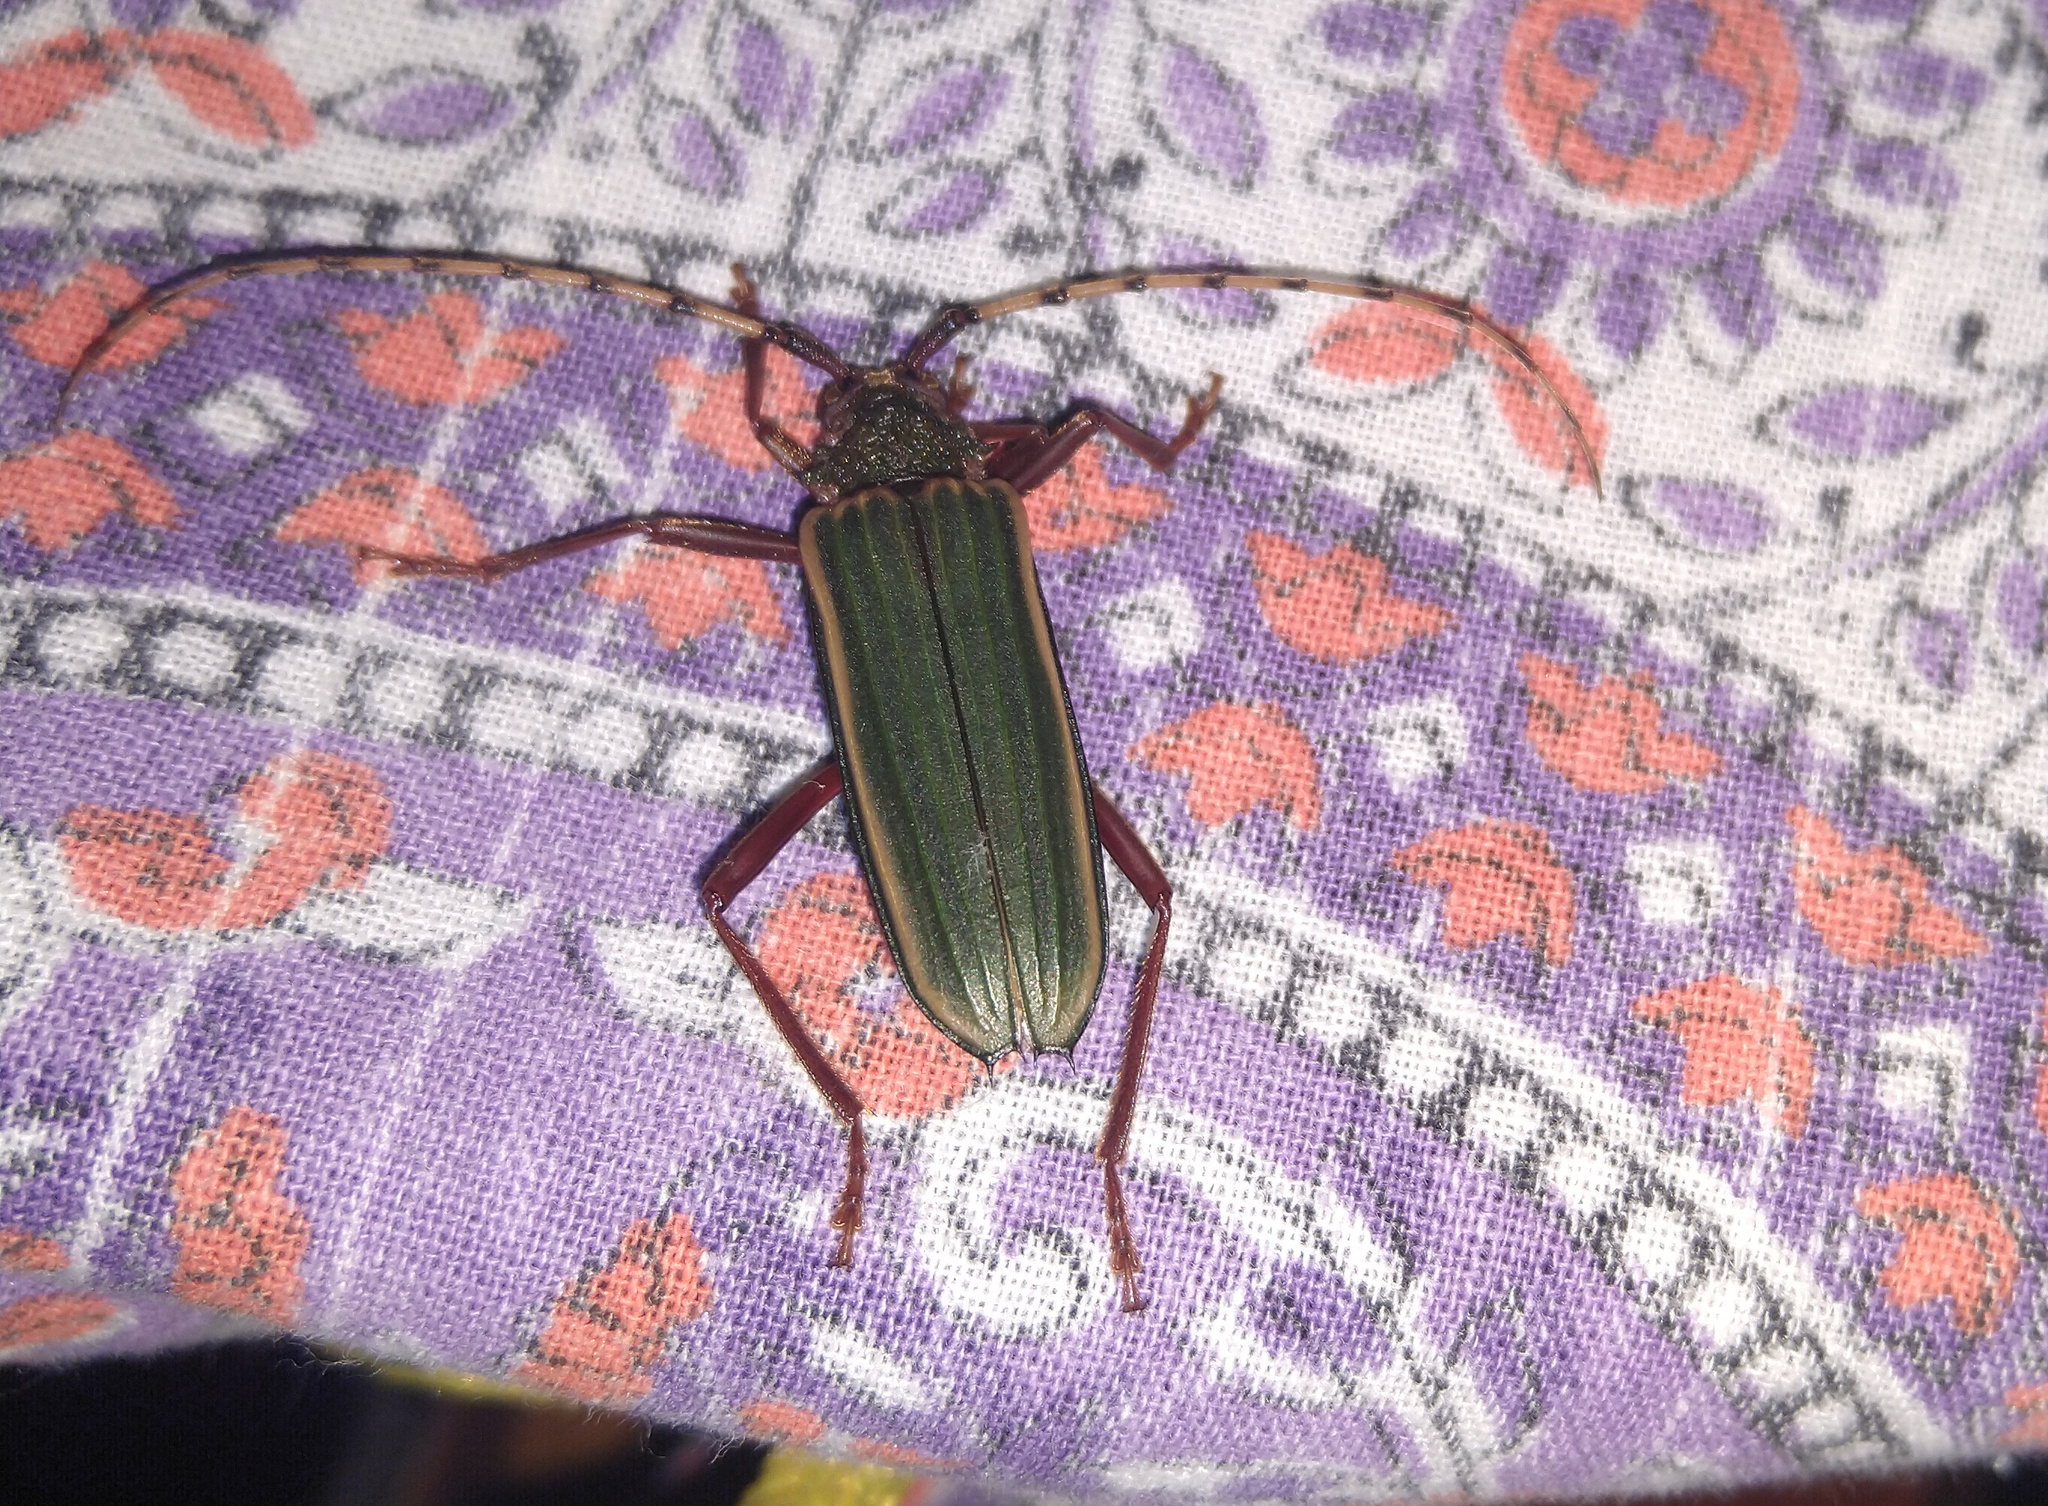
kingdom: Animalia
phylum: Arthropoda
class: Insecta
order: Coleoptera
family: Cerambycidae
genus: Chlorida
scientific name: Chlorida costata
